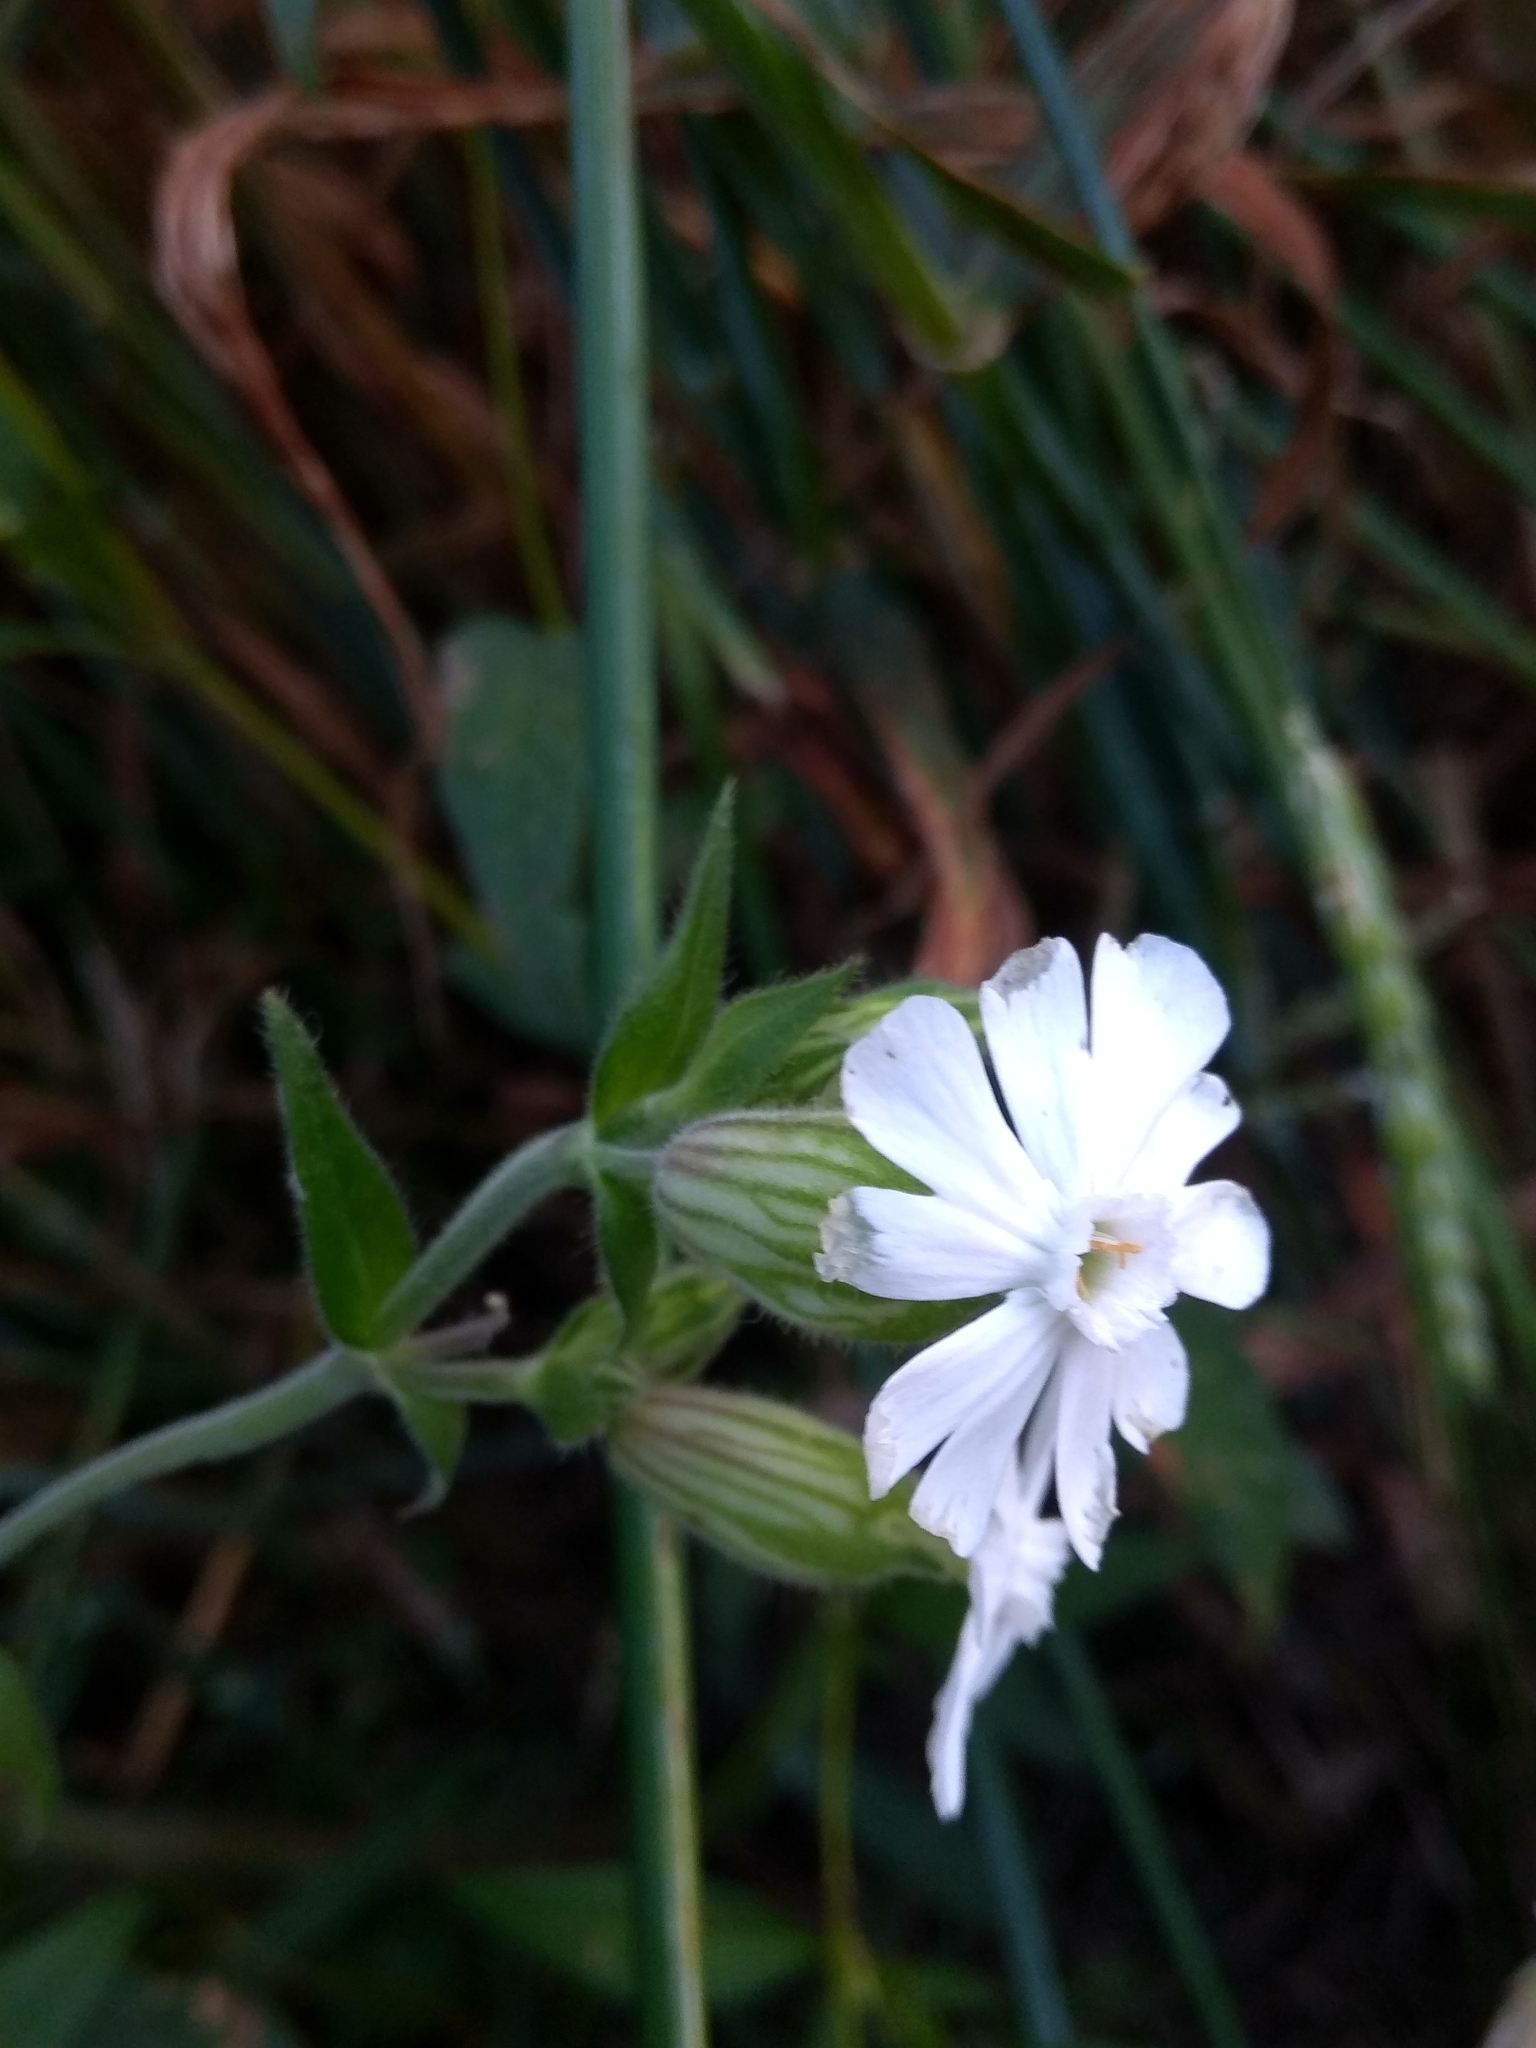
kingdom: Plantae
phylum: Tracheophyta
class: Magnoliopsida
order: Caryophyllales
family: Caryophyllaceae
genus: Silene
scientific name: Silene latifolia
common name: White campion
